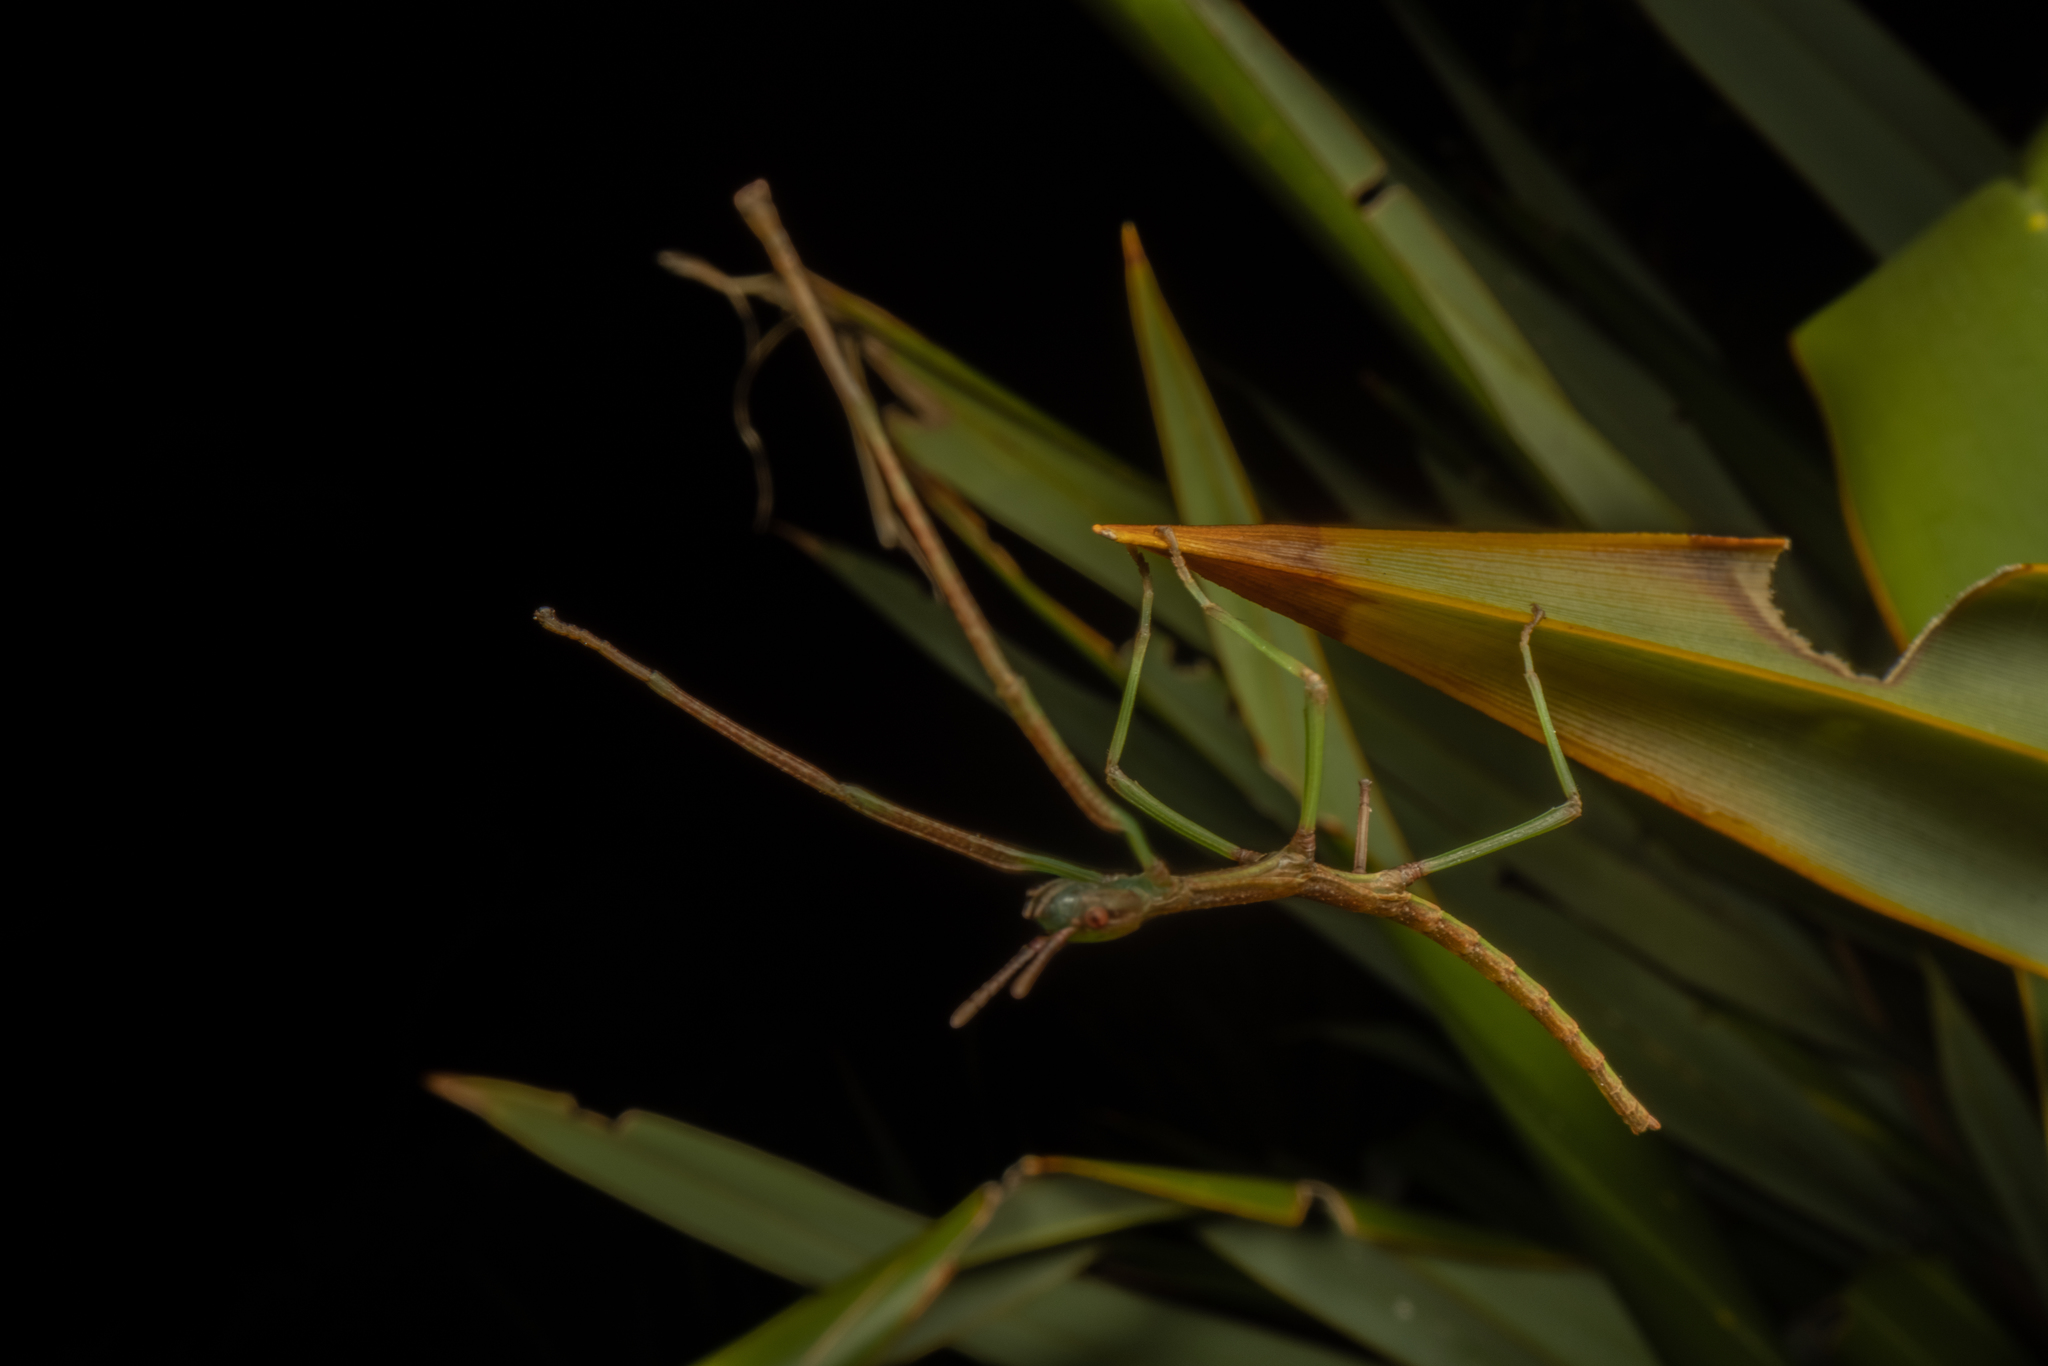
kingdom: Animalia
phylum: Arthropoda
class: Insecta
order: Phasmida
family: Phasmatidae
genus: Clitarchus
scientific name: Clitarchus rakauwhakanekeneke
